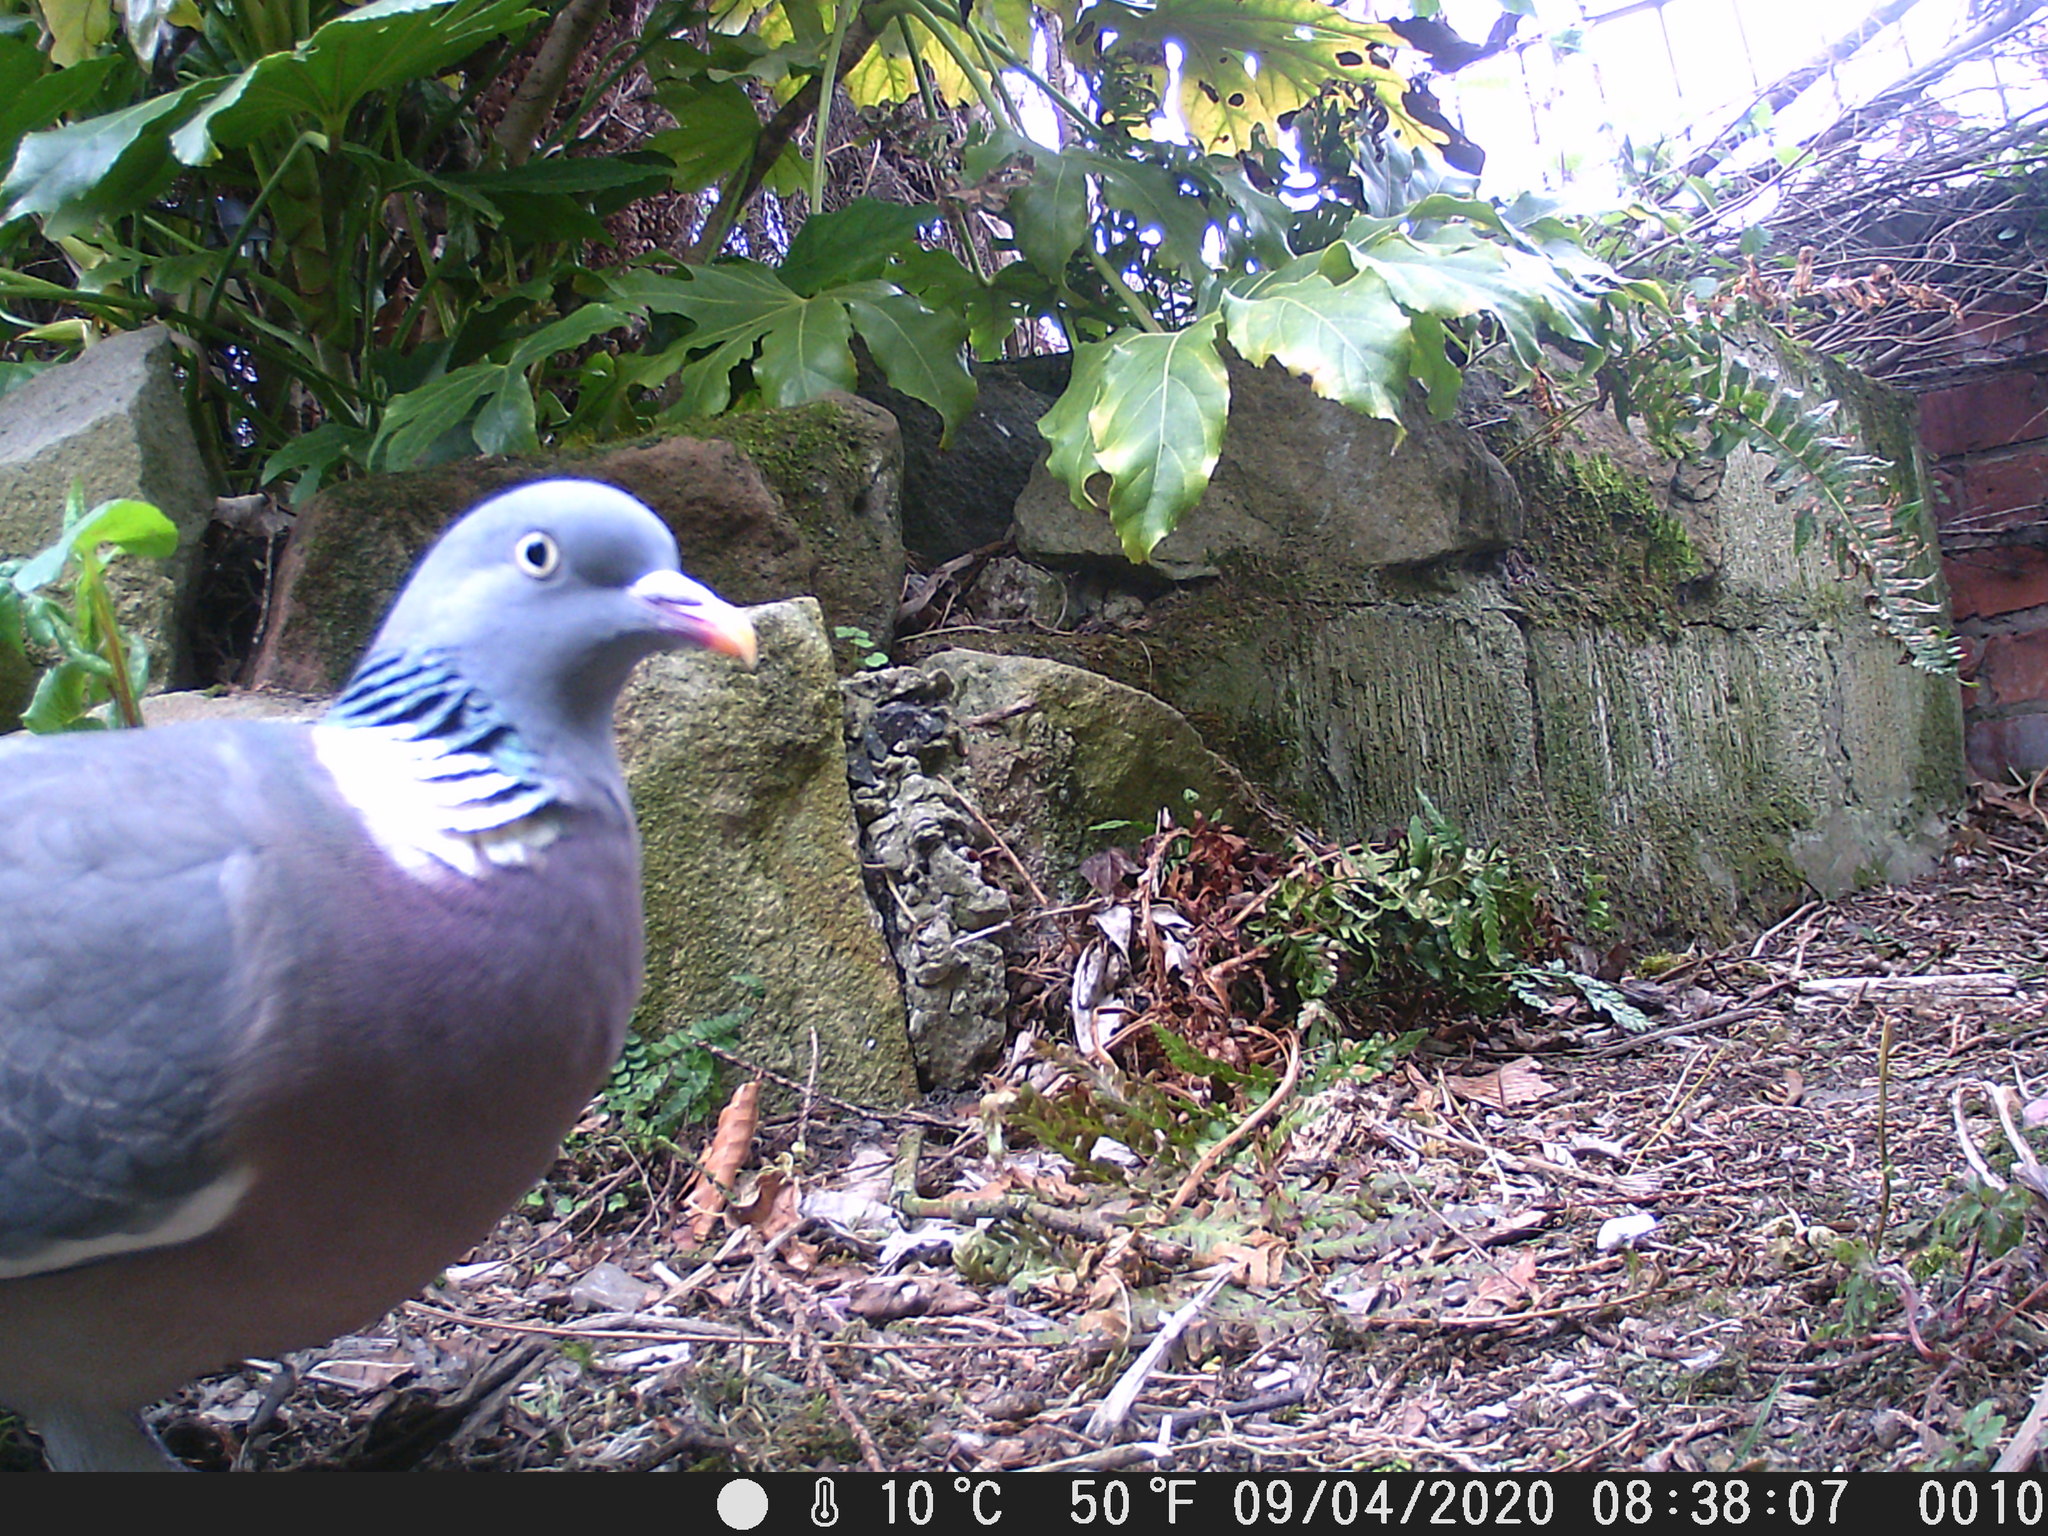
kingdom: Animalia
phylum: Chordata
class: Aves
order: Columbiformes
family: Columbidae
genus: Columba
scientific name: Columba palumbus
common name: Common wood pigeon
